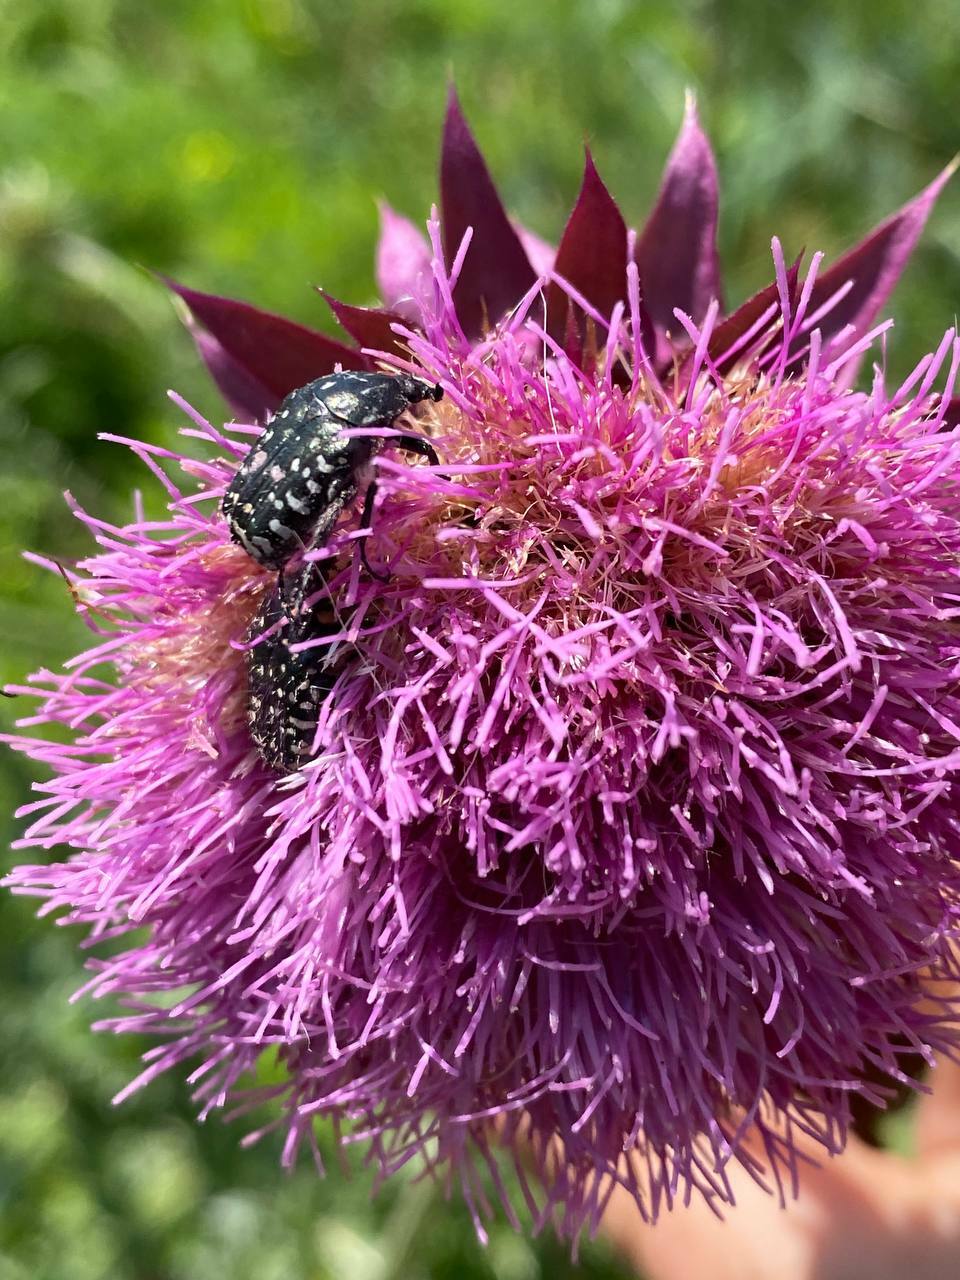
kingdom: Animalia
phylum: Arthropoda
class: Insecta
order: Coleoptera
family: Scarabaeidae
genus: Oxythyrea
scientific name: Oxythyrea funesta
